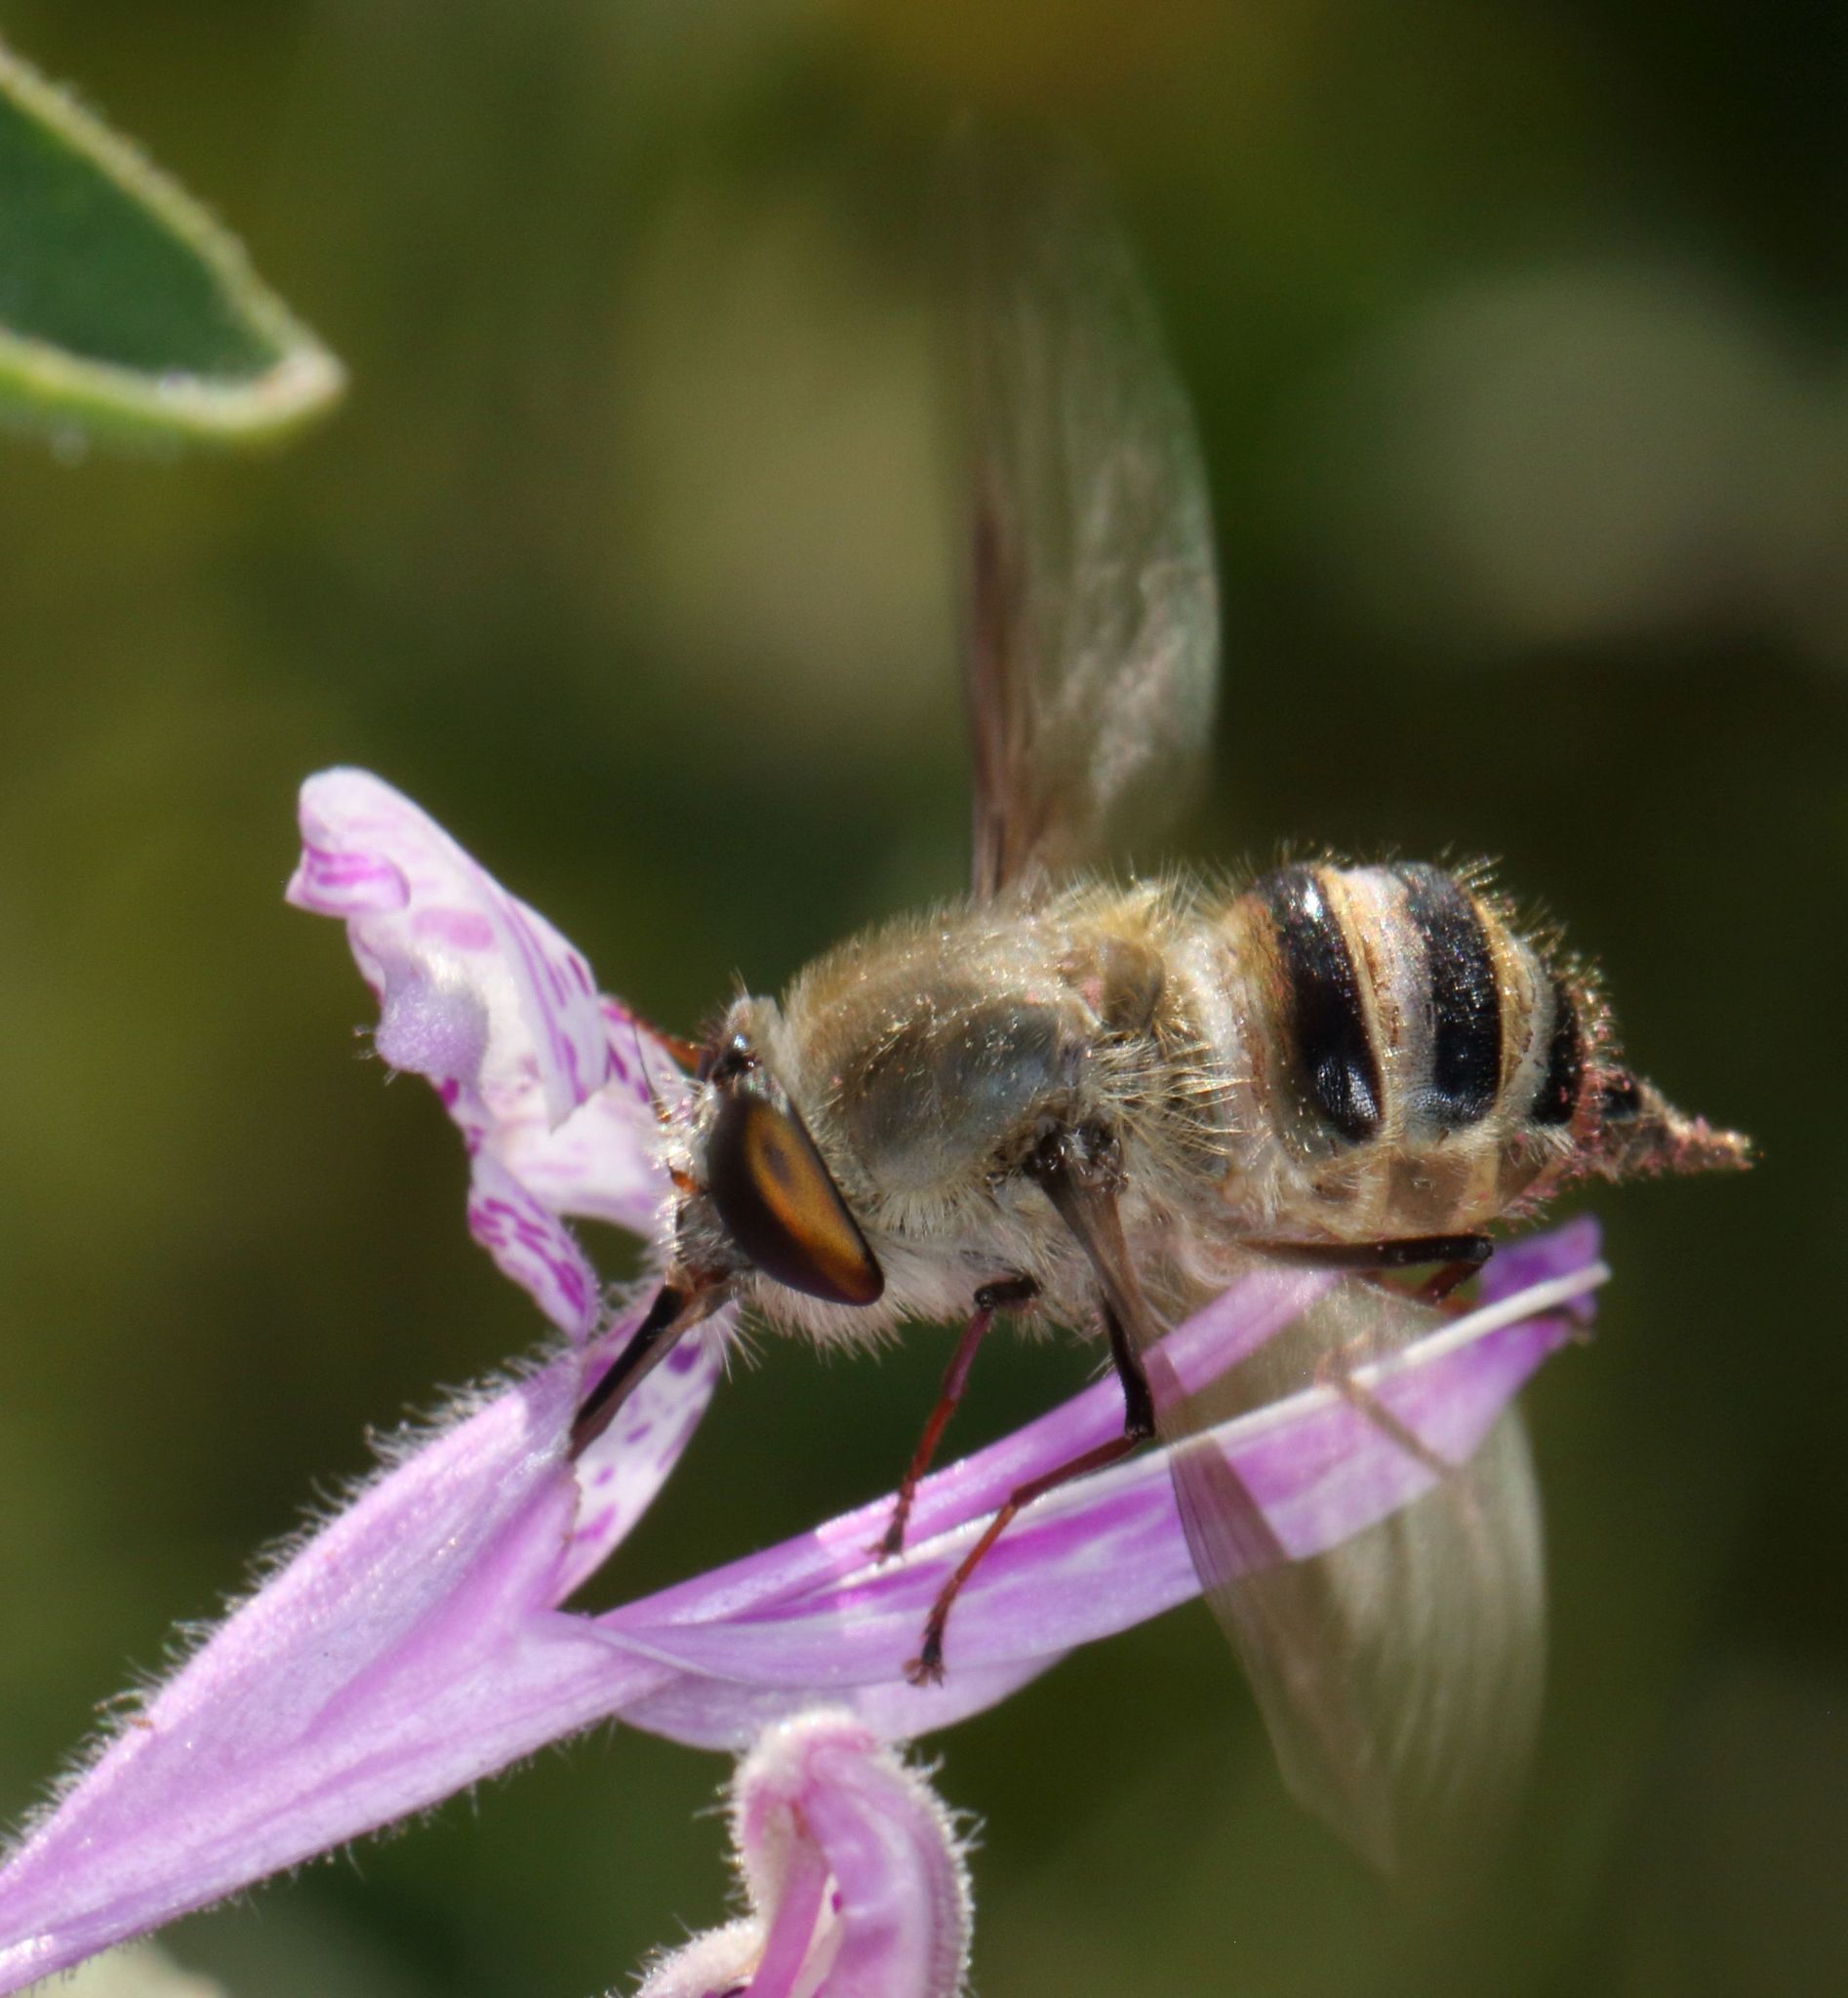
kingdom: Animalia
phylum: Arthropoda
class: Insecta
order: Diptera
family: Nemestrinidae
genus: Prosoeca
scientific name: Prosoeca circumdata
